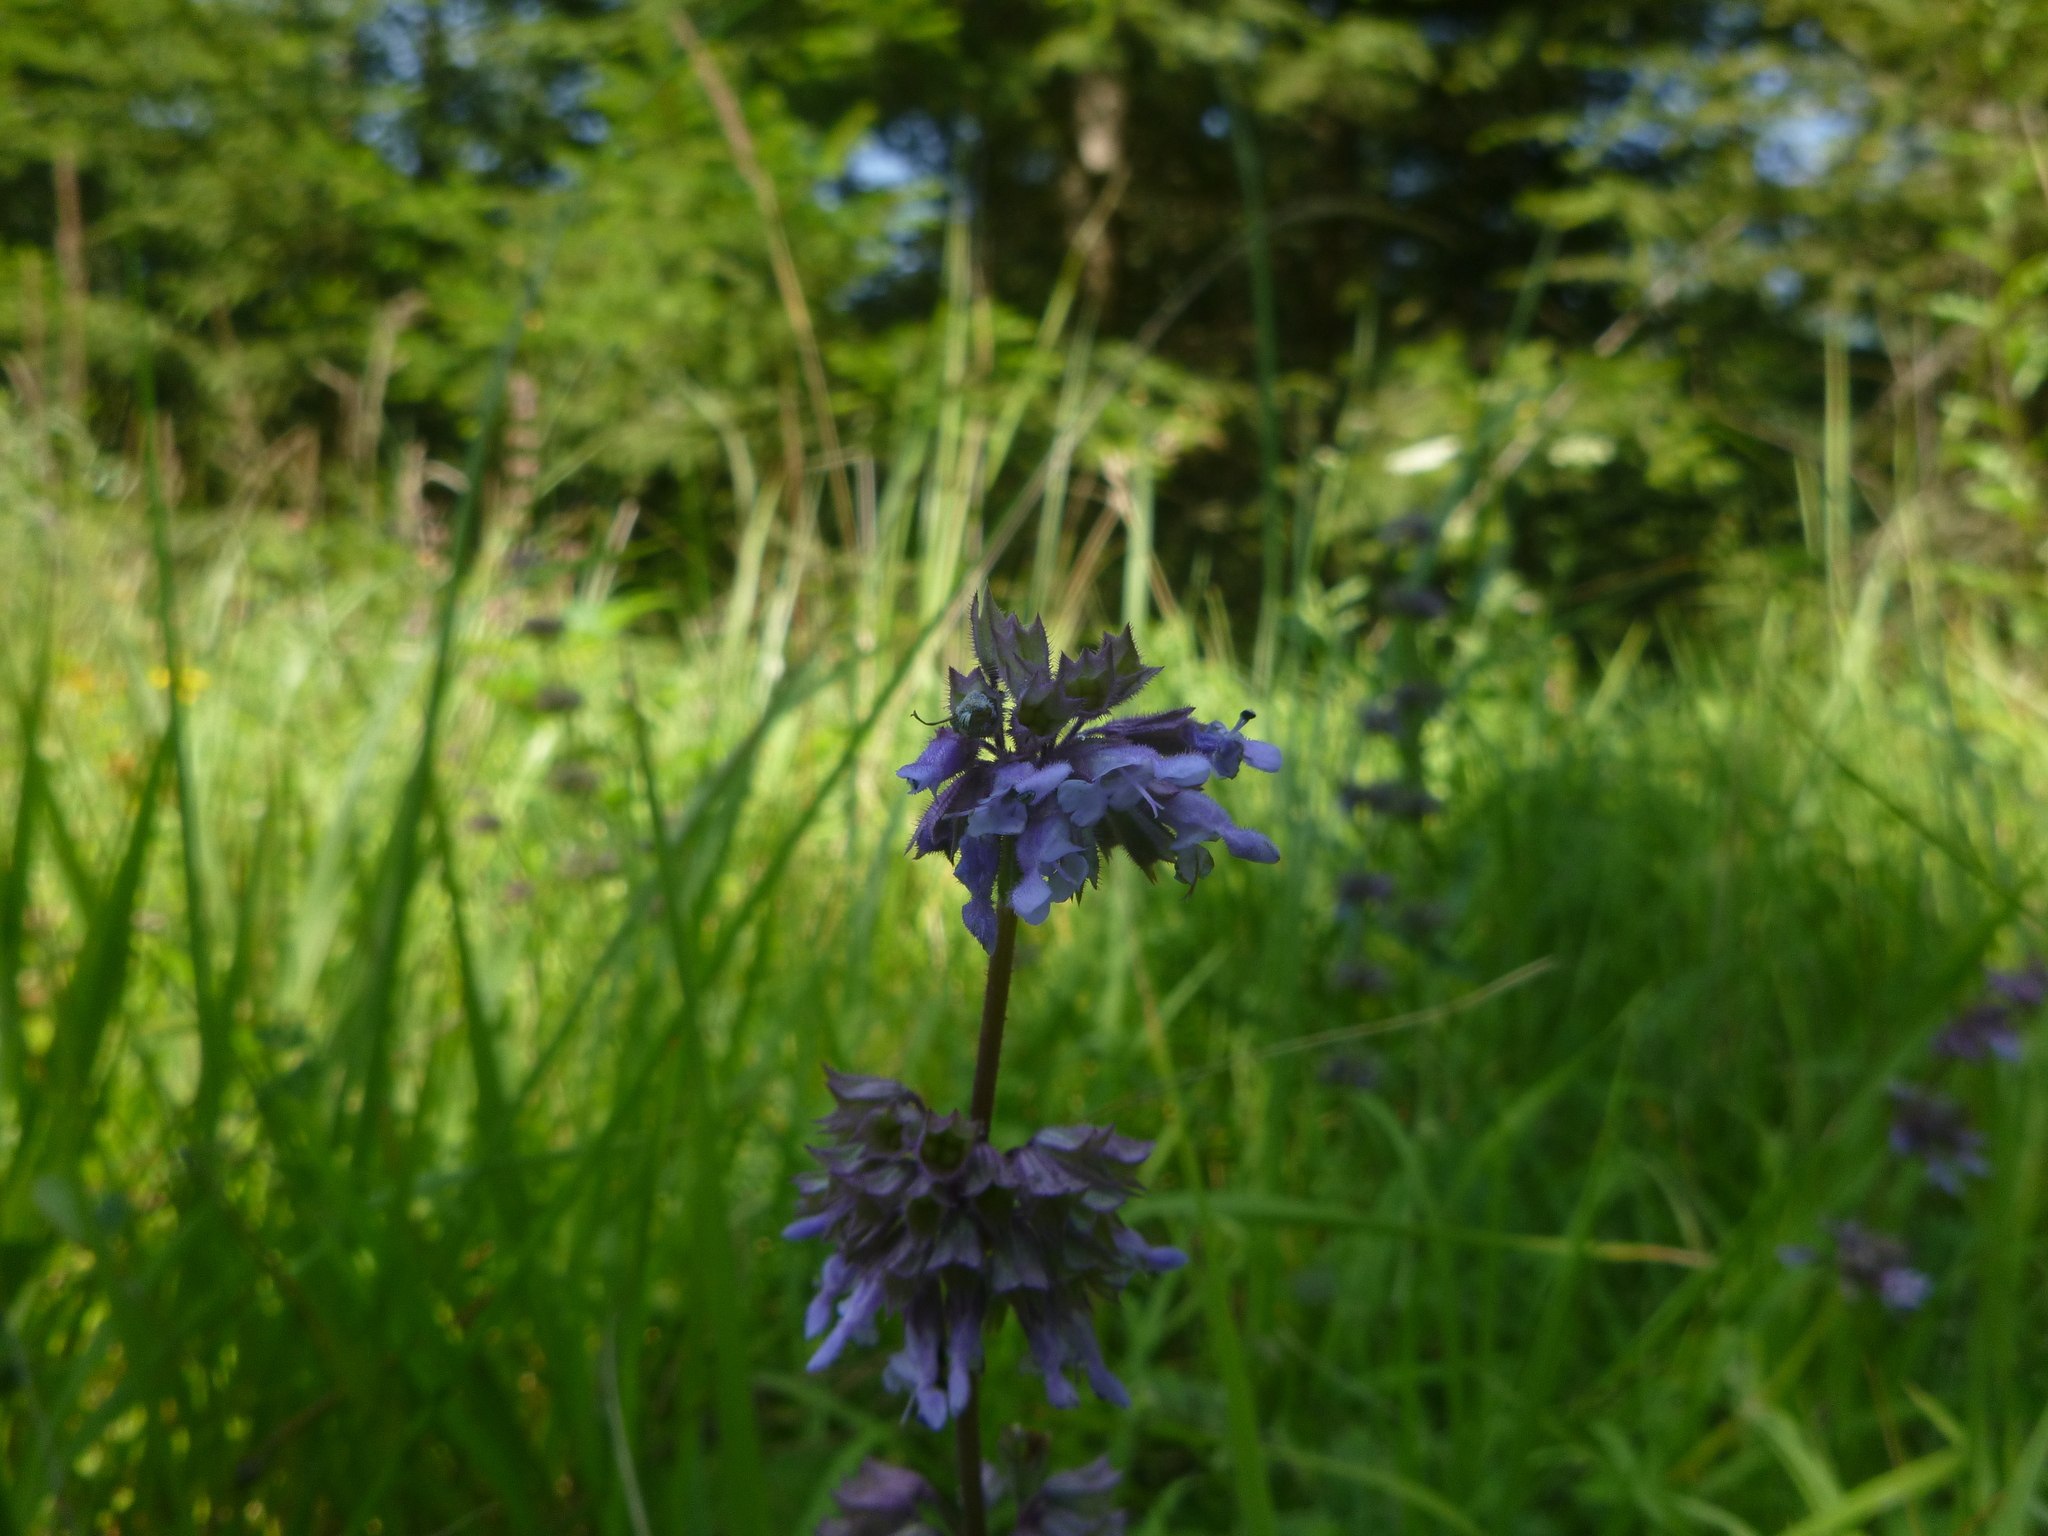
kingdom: Plantae
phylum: Tracheophyta
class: Magnoliopsida
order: Lamiales
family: Lamiaceae
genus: Salvia
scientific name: Salvia verticillata
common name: Whorled clary
